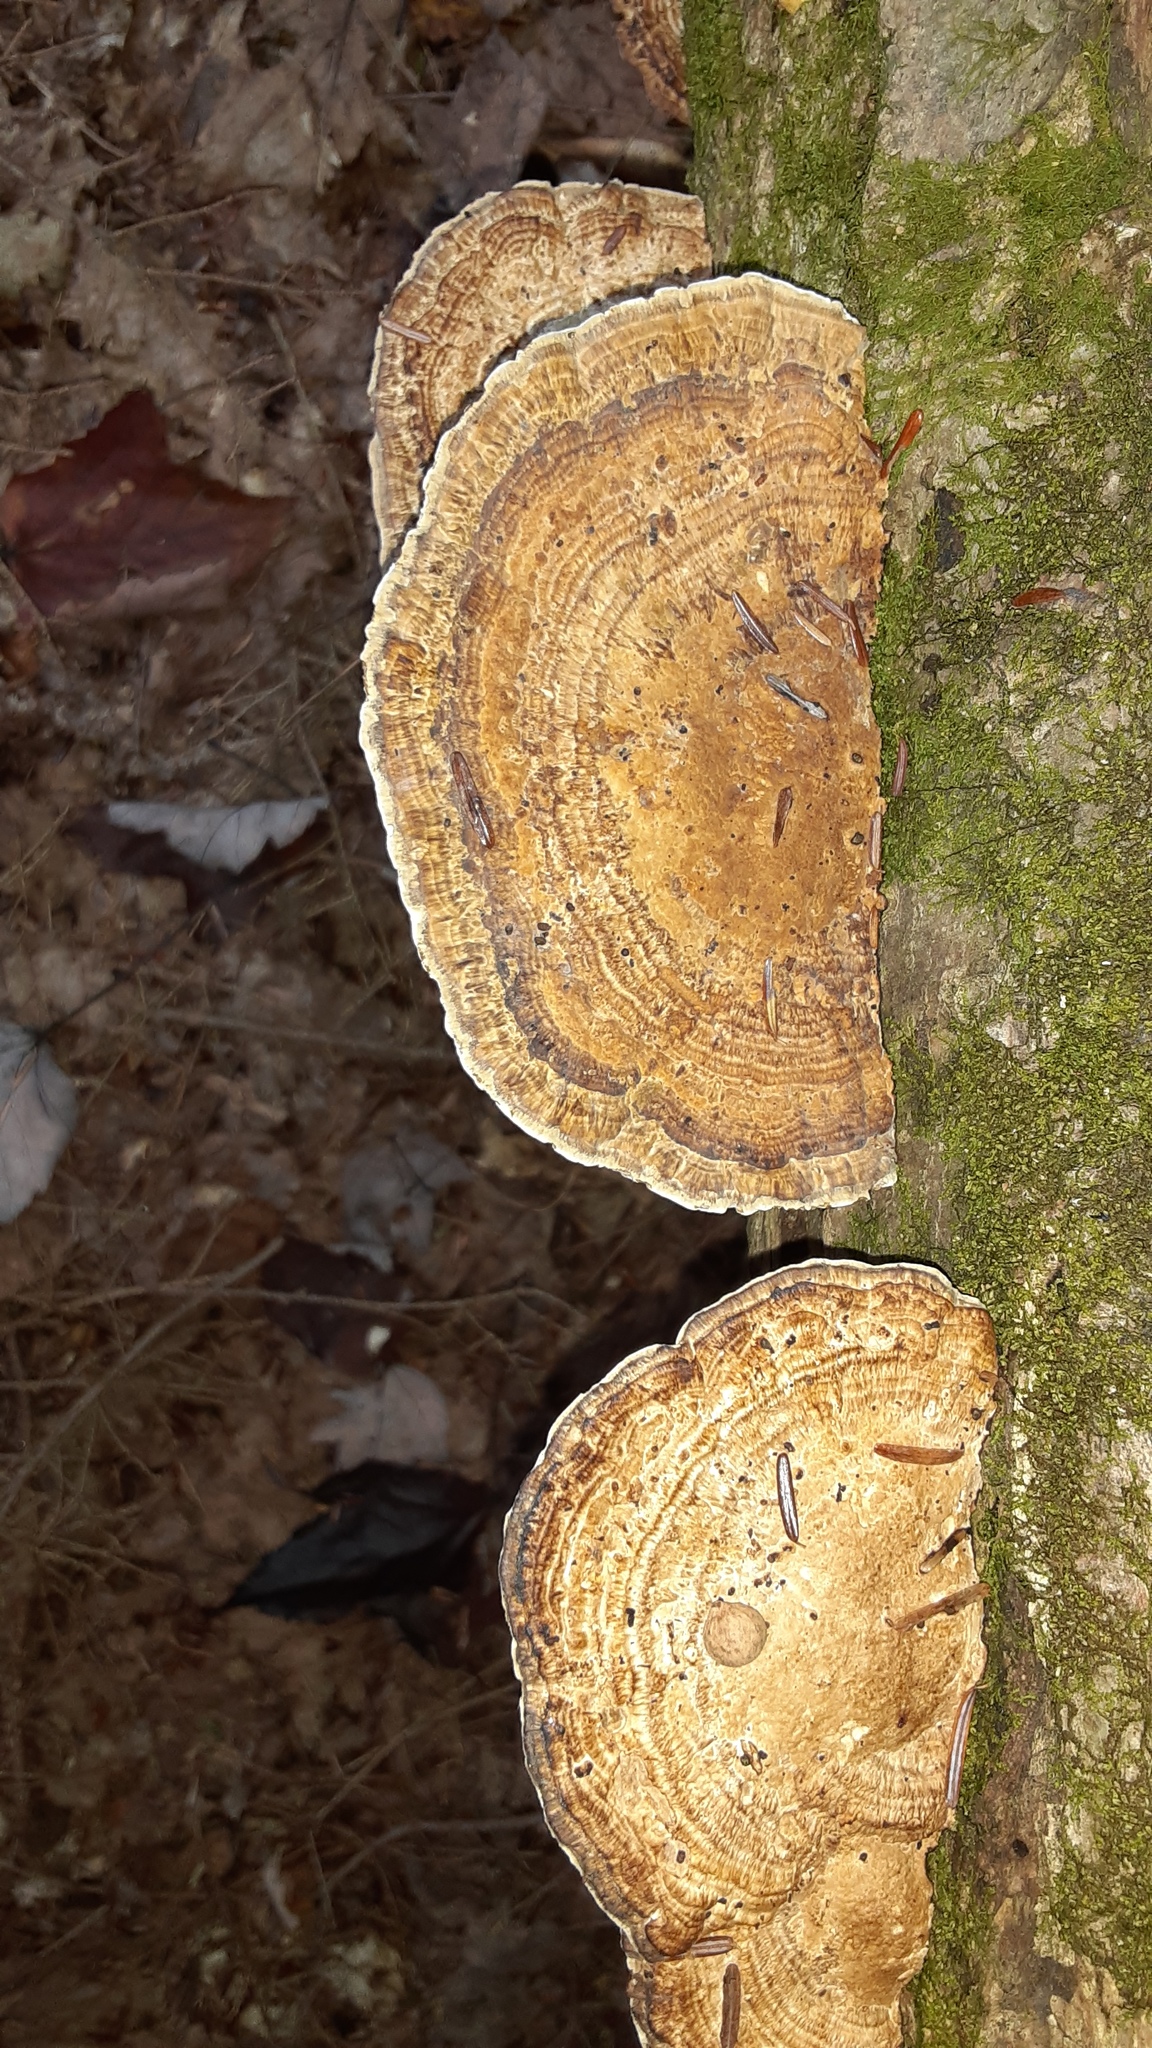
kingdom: Fungi
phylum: Basidiomycota
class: Agaricomycetes
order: Polyporales
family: Polyporaceae
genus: Daedaleopsis
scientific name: Daedaleopsis confragosa
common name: Blushing bracket
